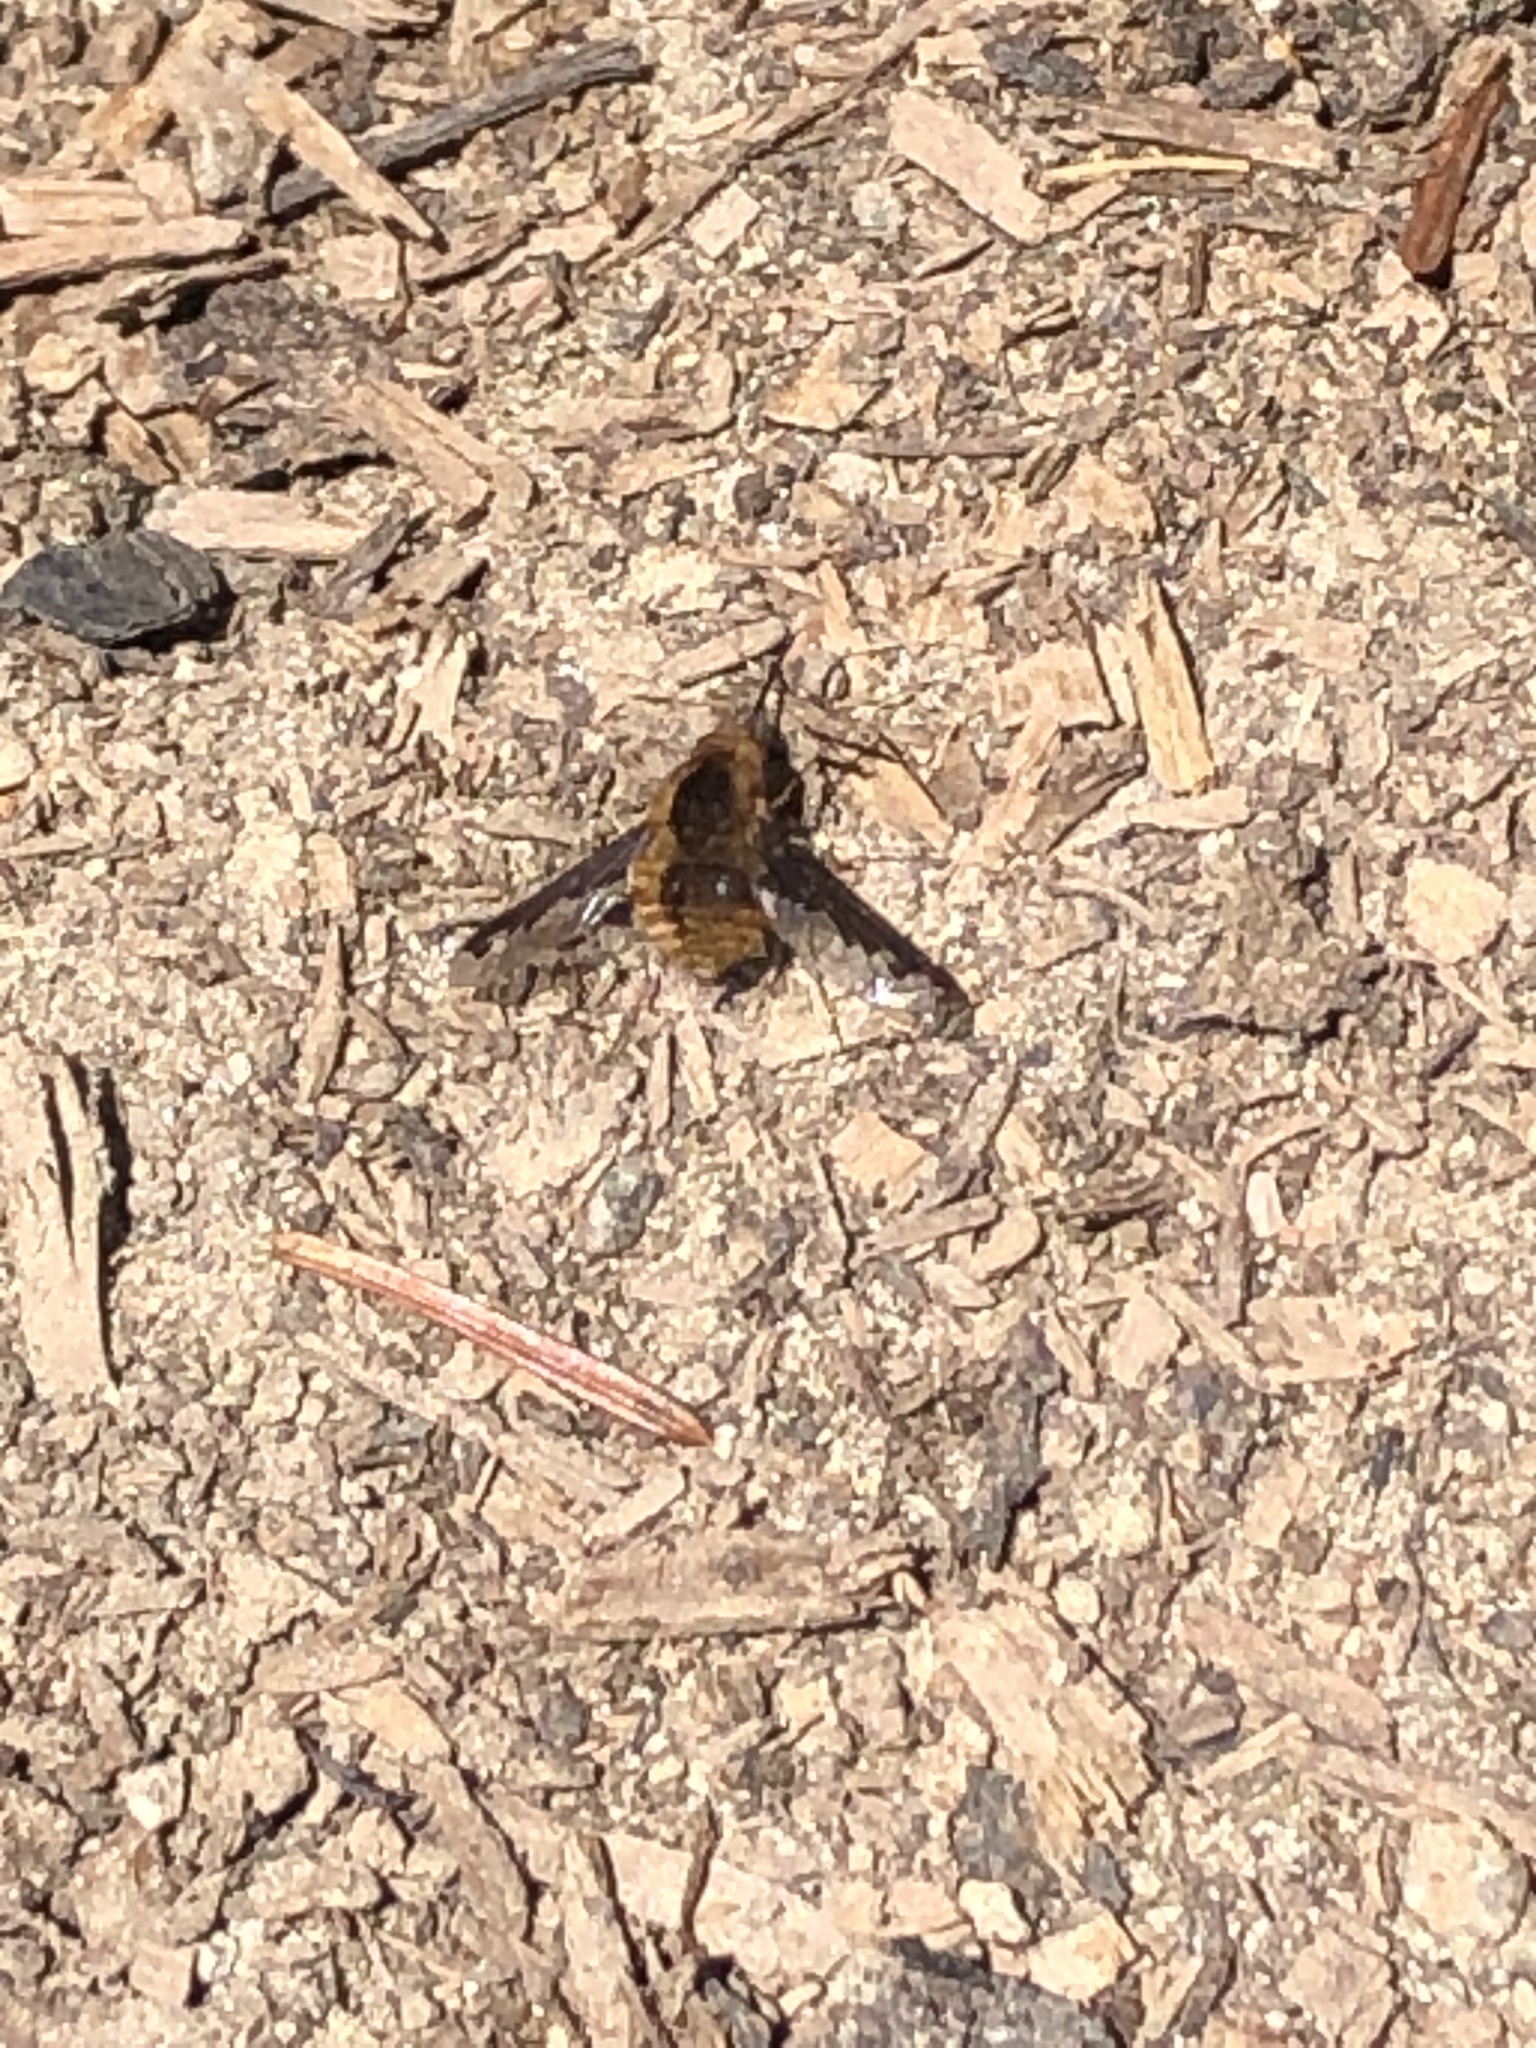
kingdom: Animalia
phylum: Arthropoda
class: Insecta
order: Diptera
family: Bombyliidae
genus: Bombylius
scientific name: Bombylius major
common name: Bee fly
